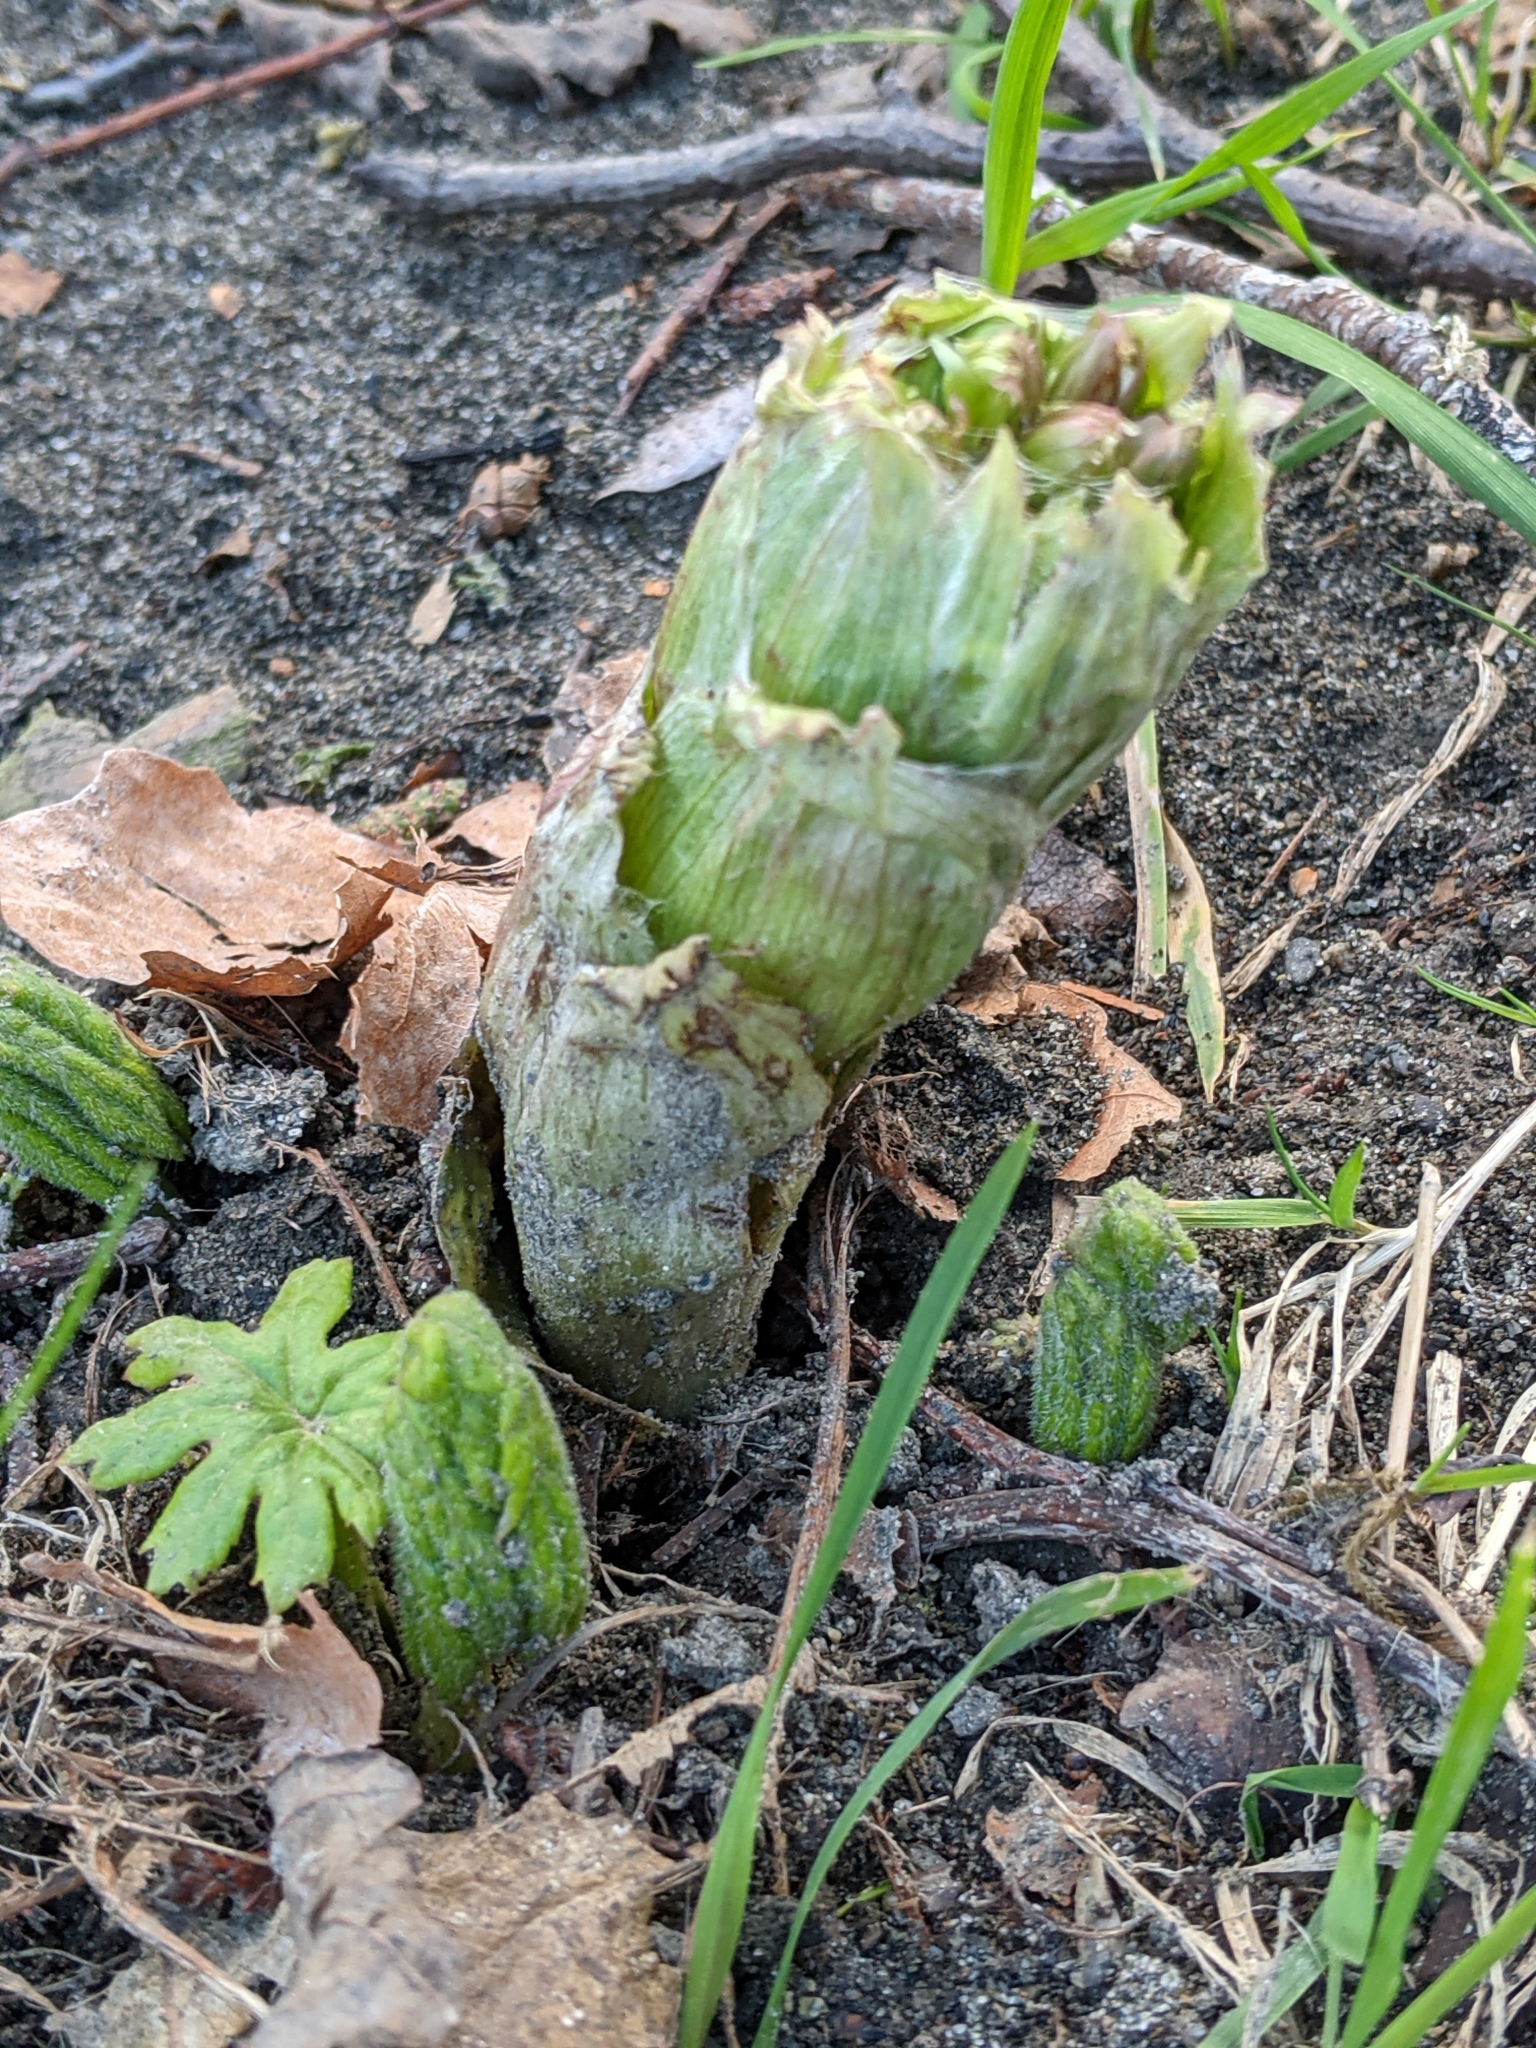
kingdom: Plantae
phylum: Tracheophyta
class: Magnoliopsida
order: Asterales
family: Asteraceae
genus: Petasites
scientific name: Petasites frigidus
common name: Arctic butterbur
